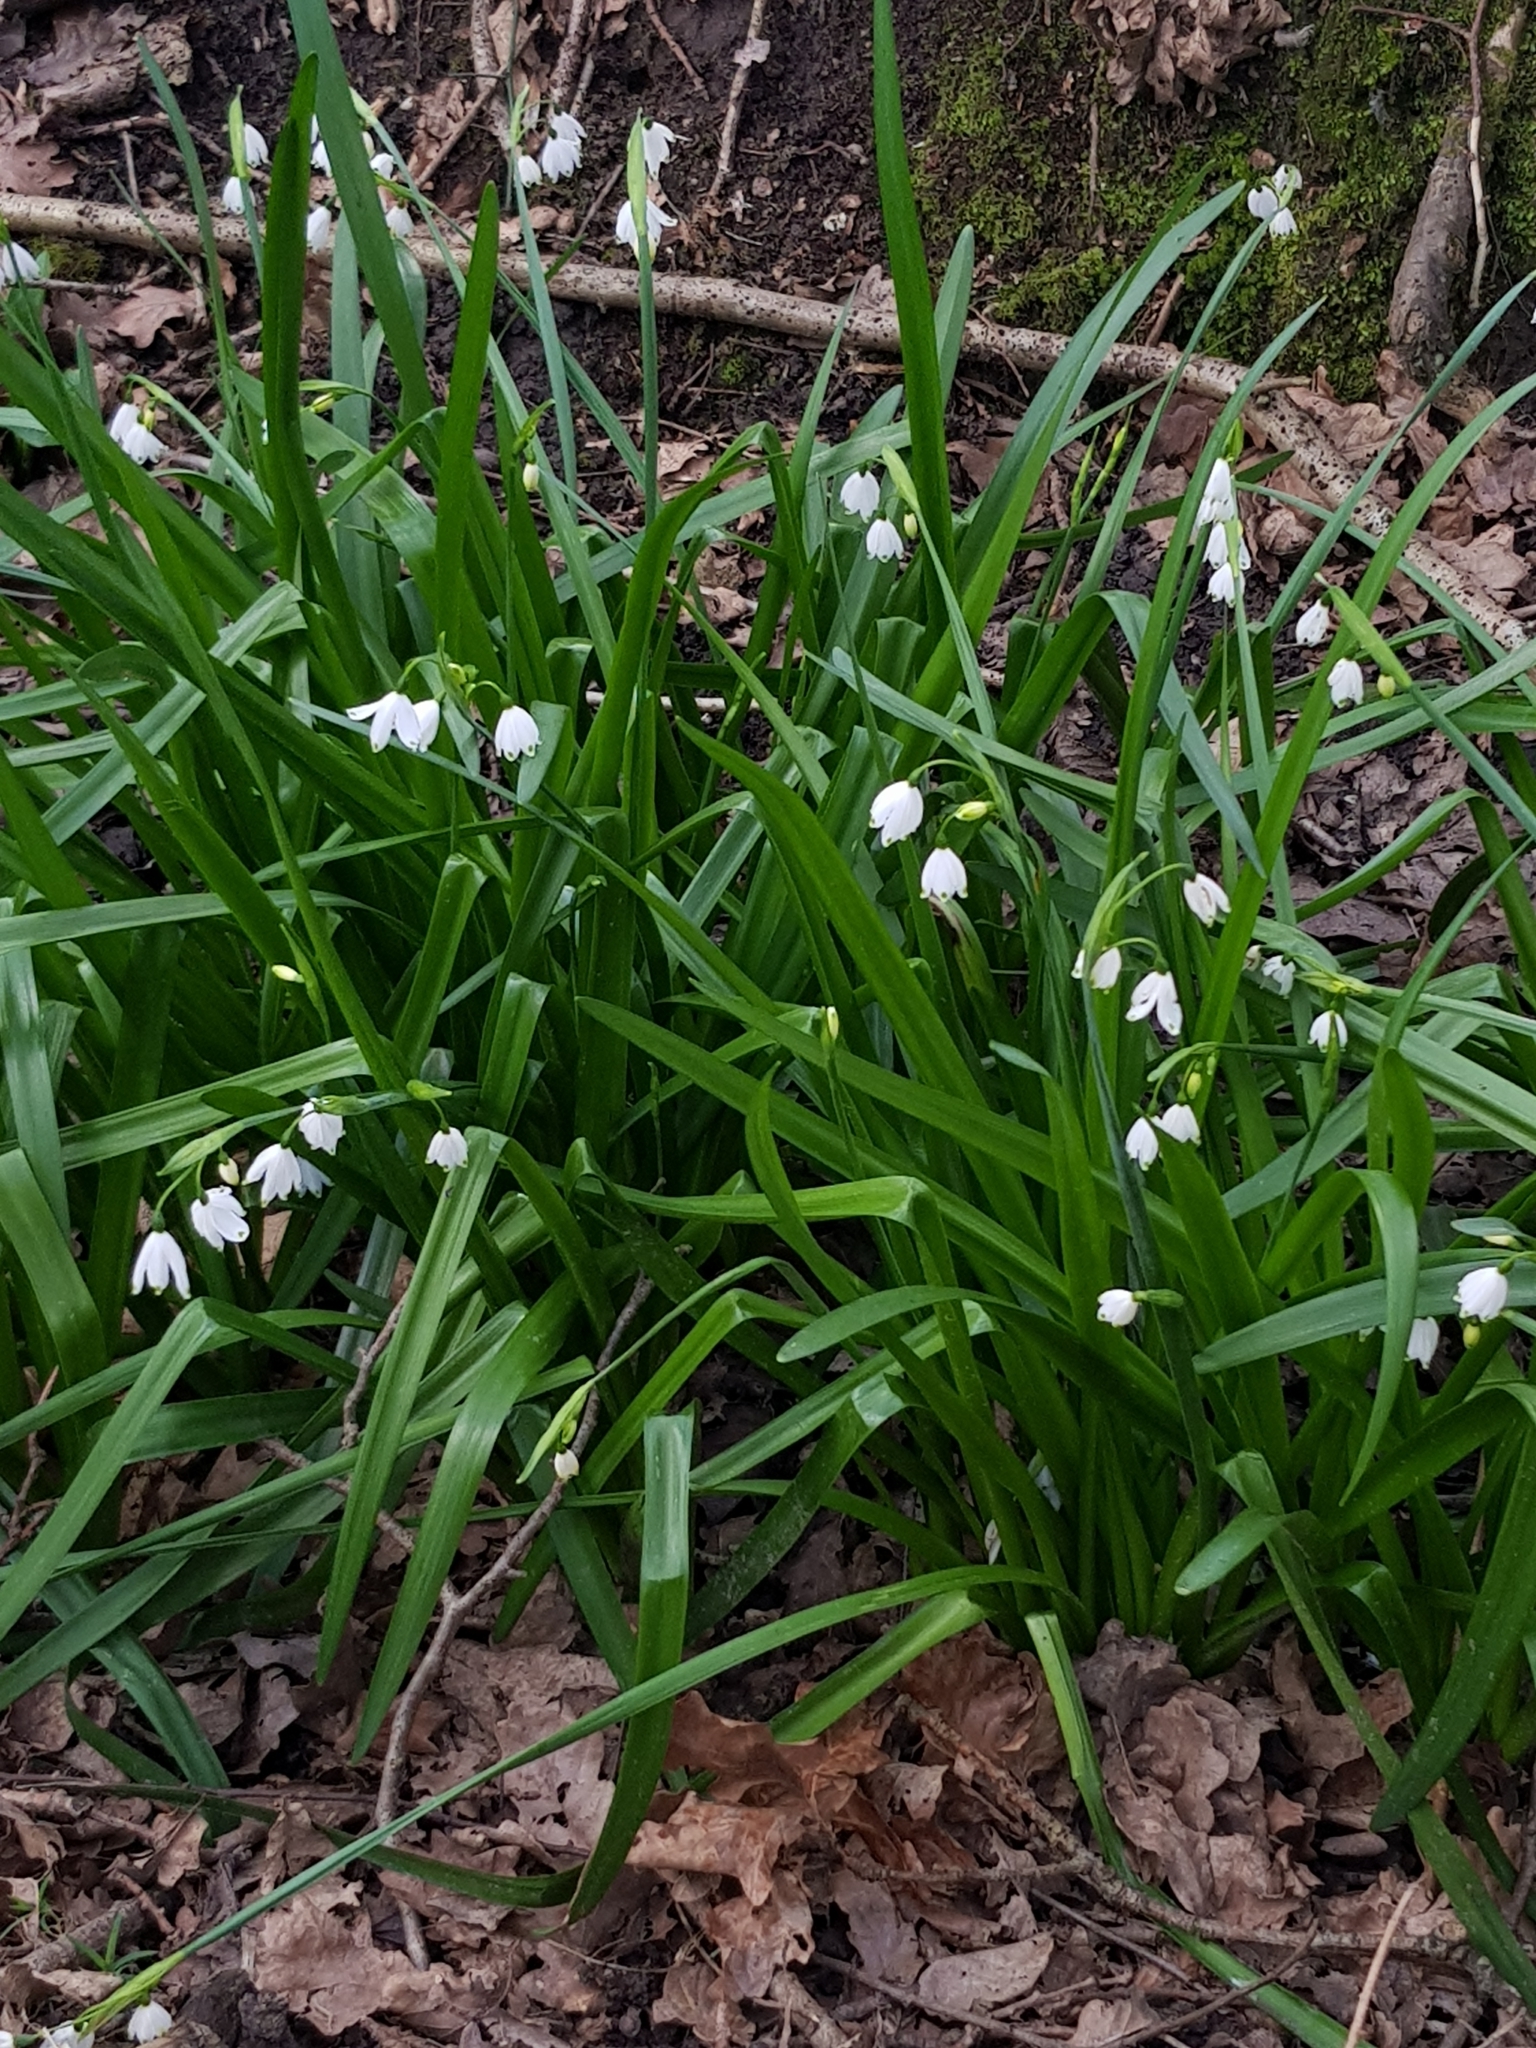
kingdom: Plantae
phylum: Tracheophyta
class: Liliopsida
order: Asparagales
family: Amaryllidaceae
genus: Leucojum
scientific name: Leucojum aestivum
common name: Summer snowflake
